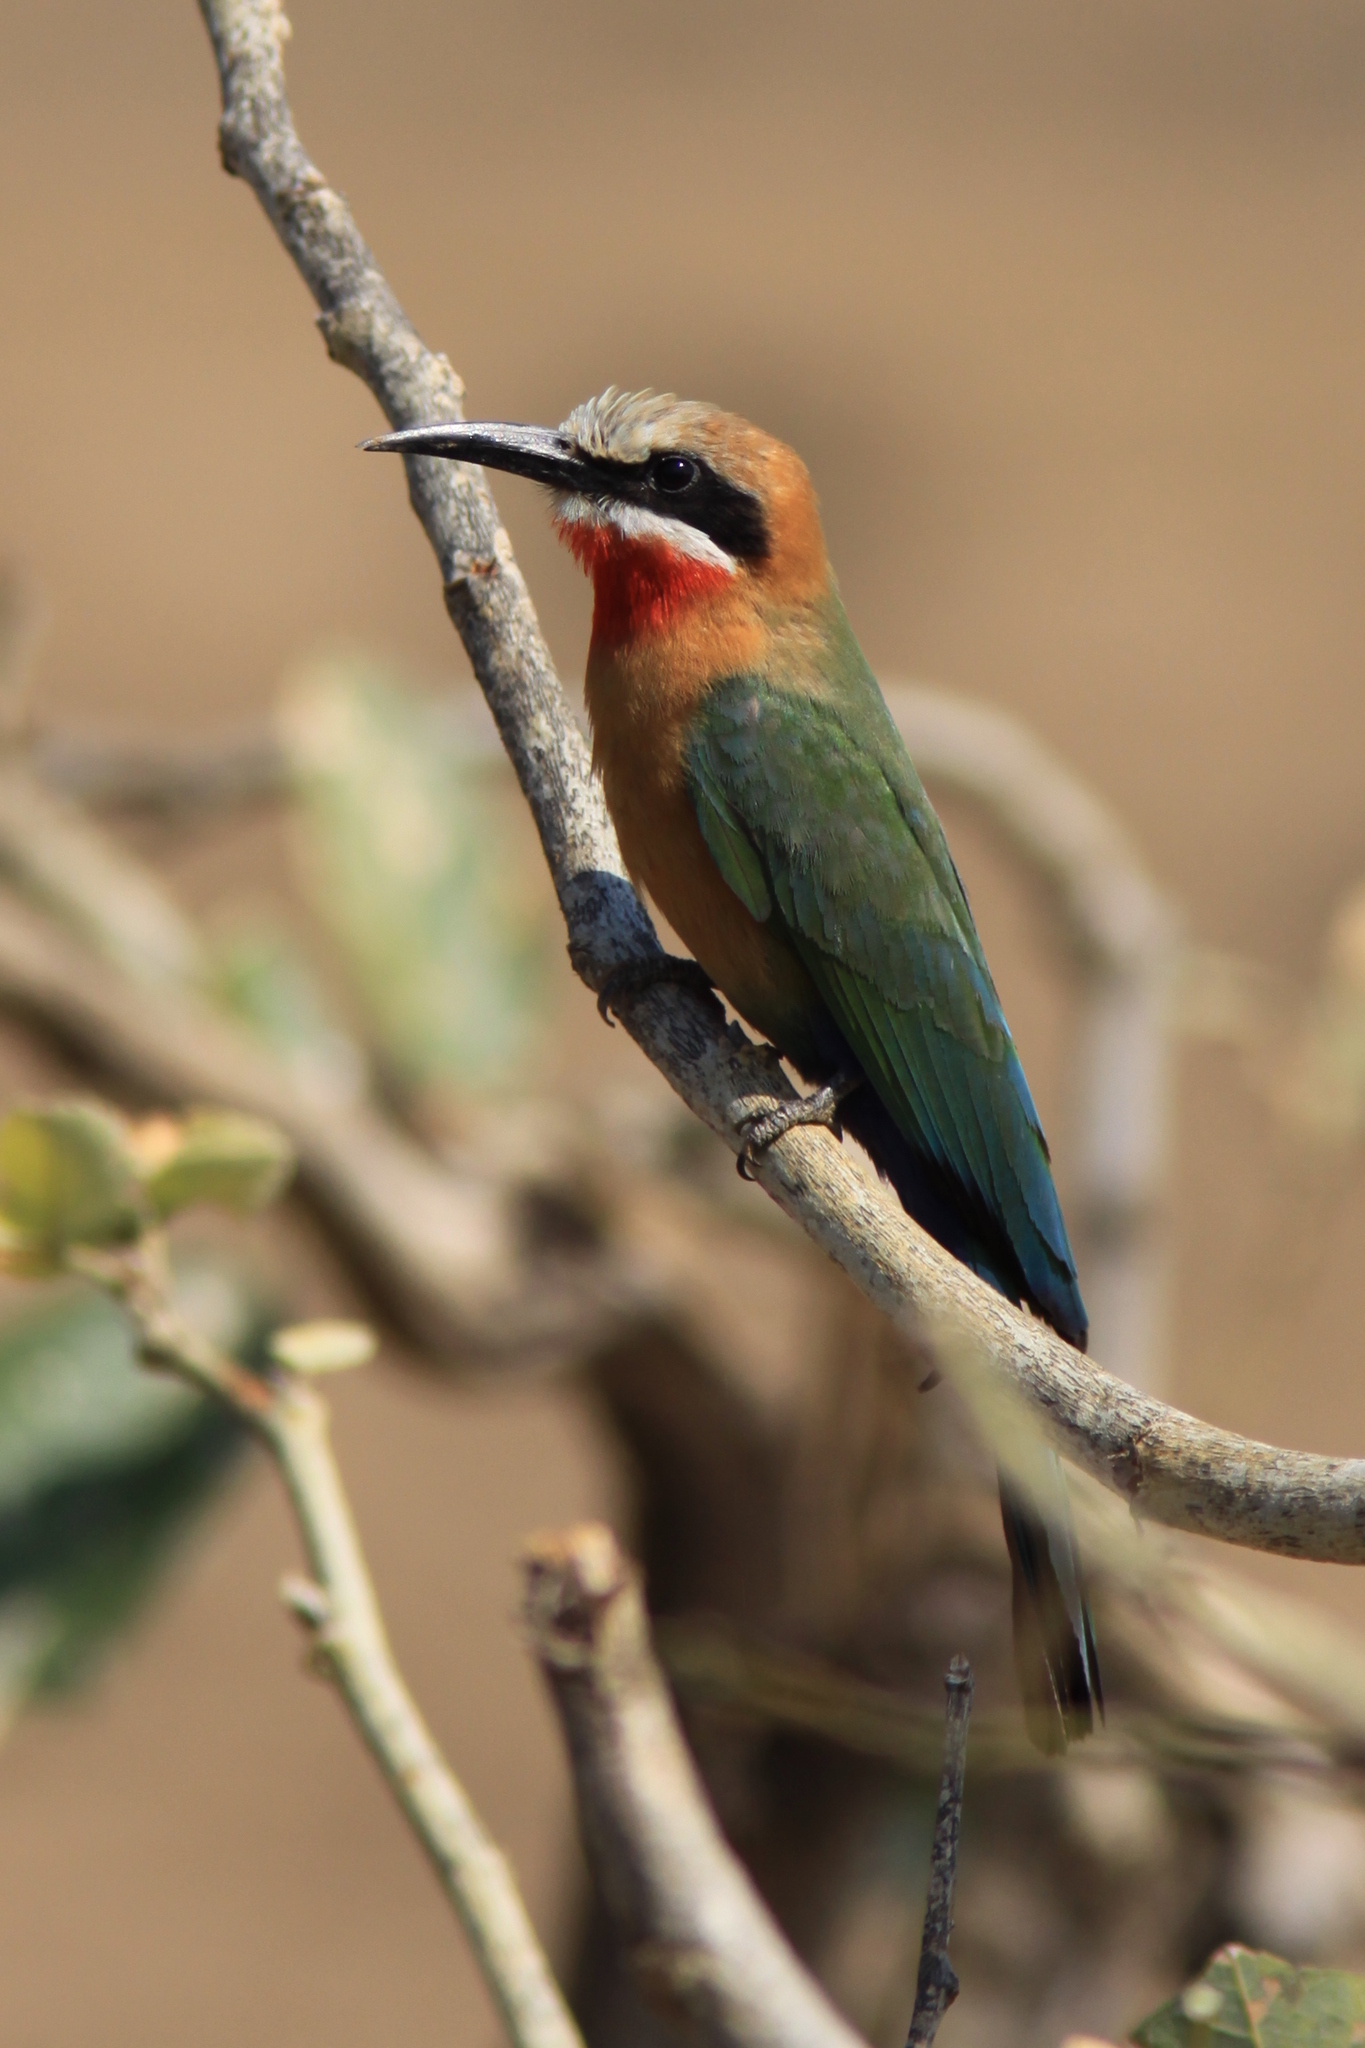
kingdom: Animalia
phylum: Chordata
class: Aves
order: Coraciiformes
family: Meropidae
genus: Merops
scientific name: Merops bullockoides
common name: White-fronted bee-eater
